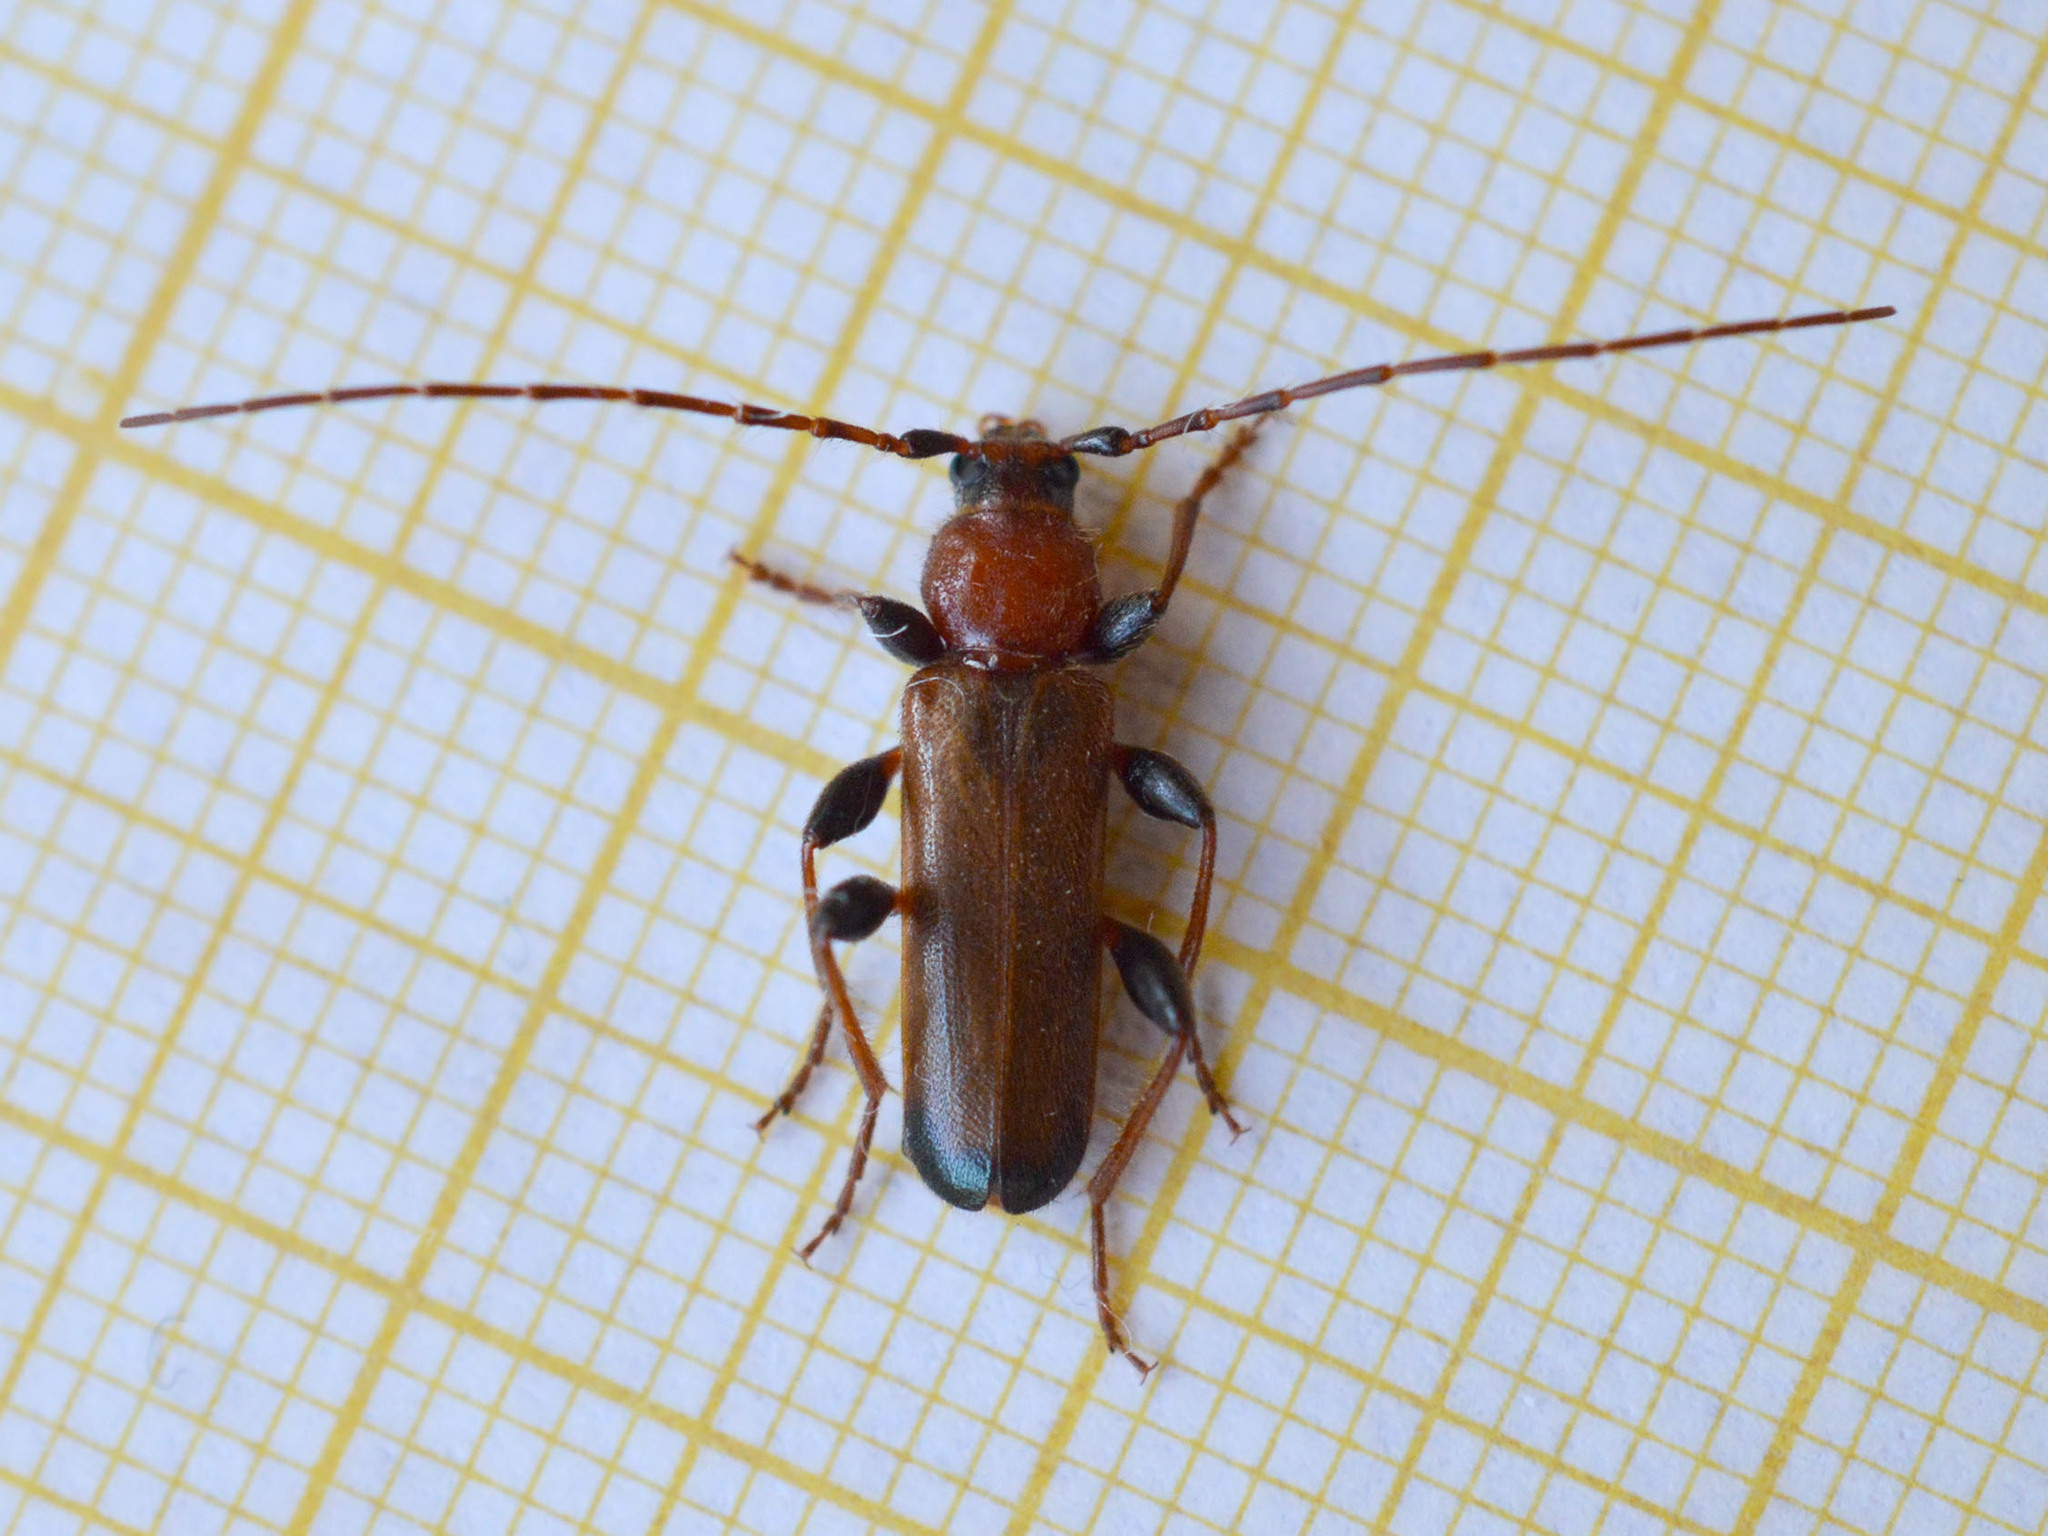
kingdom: Animalia
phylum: Arthropoda
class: Insecta
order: Coleoptera
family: Cerambycidae
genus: Phymatodes
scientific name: Phymatodes testaceus
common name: Long-horned beetle
